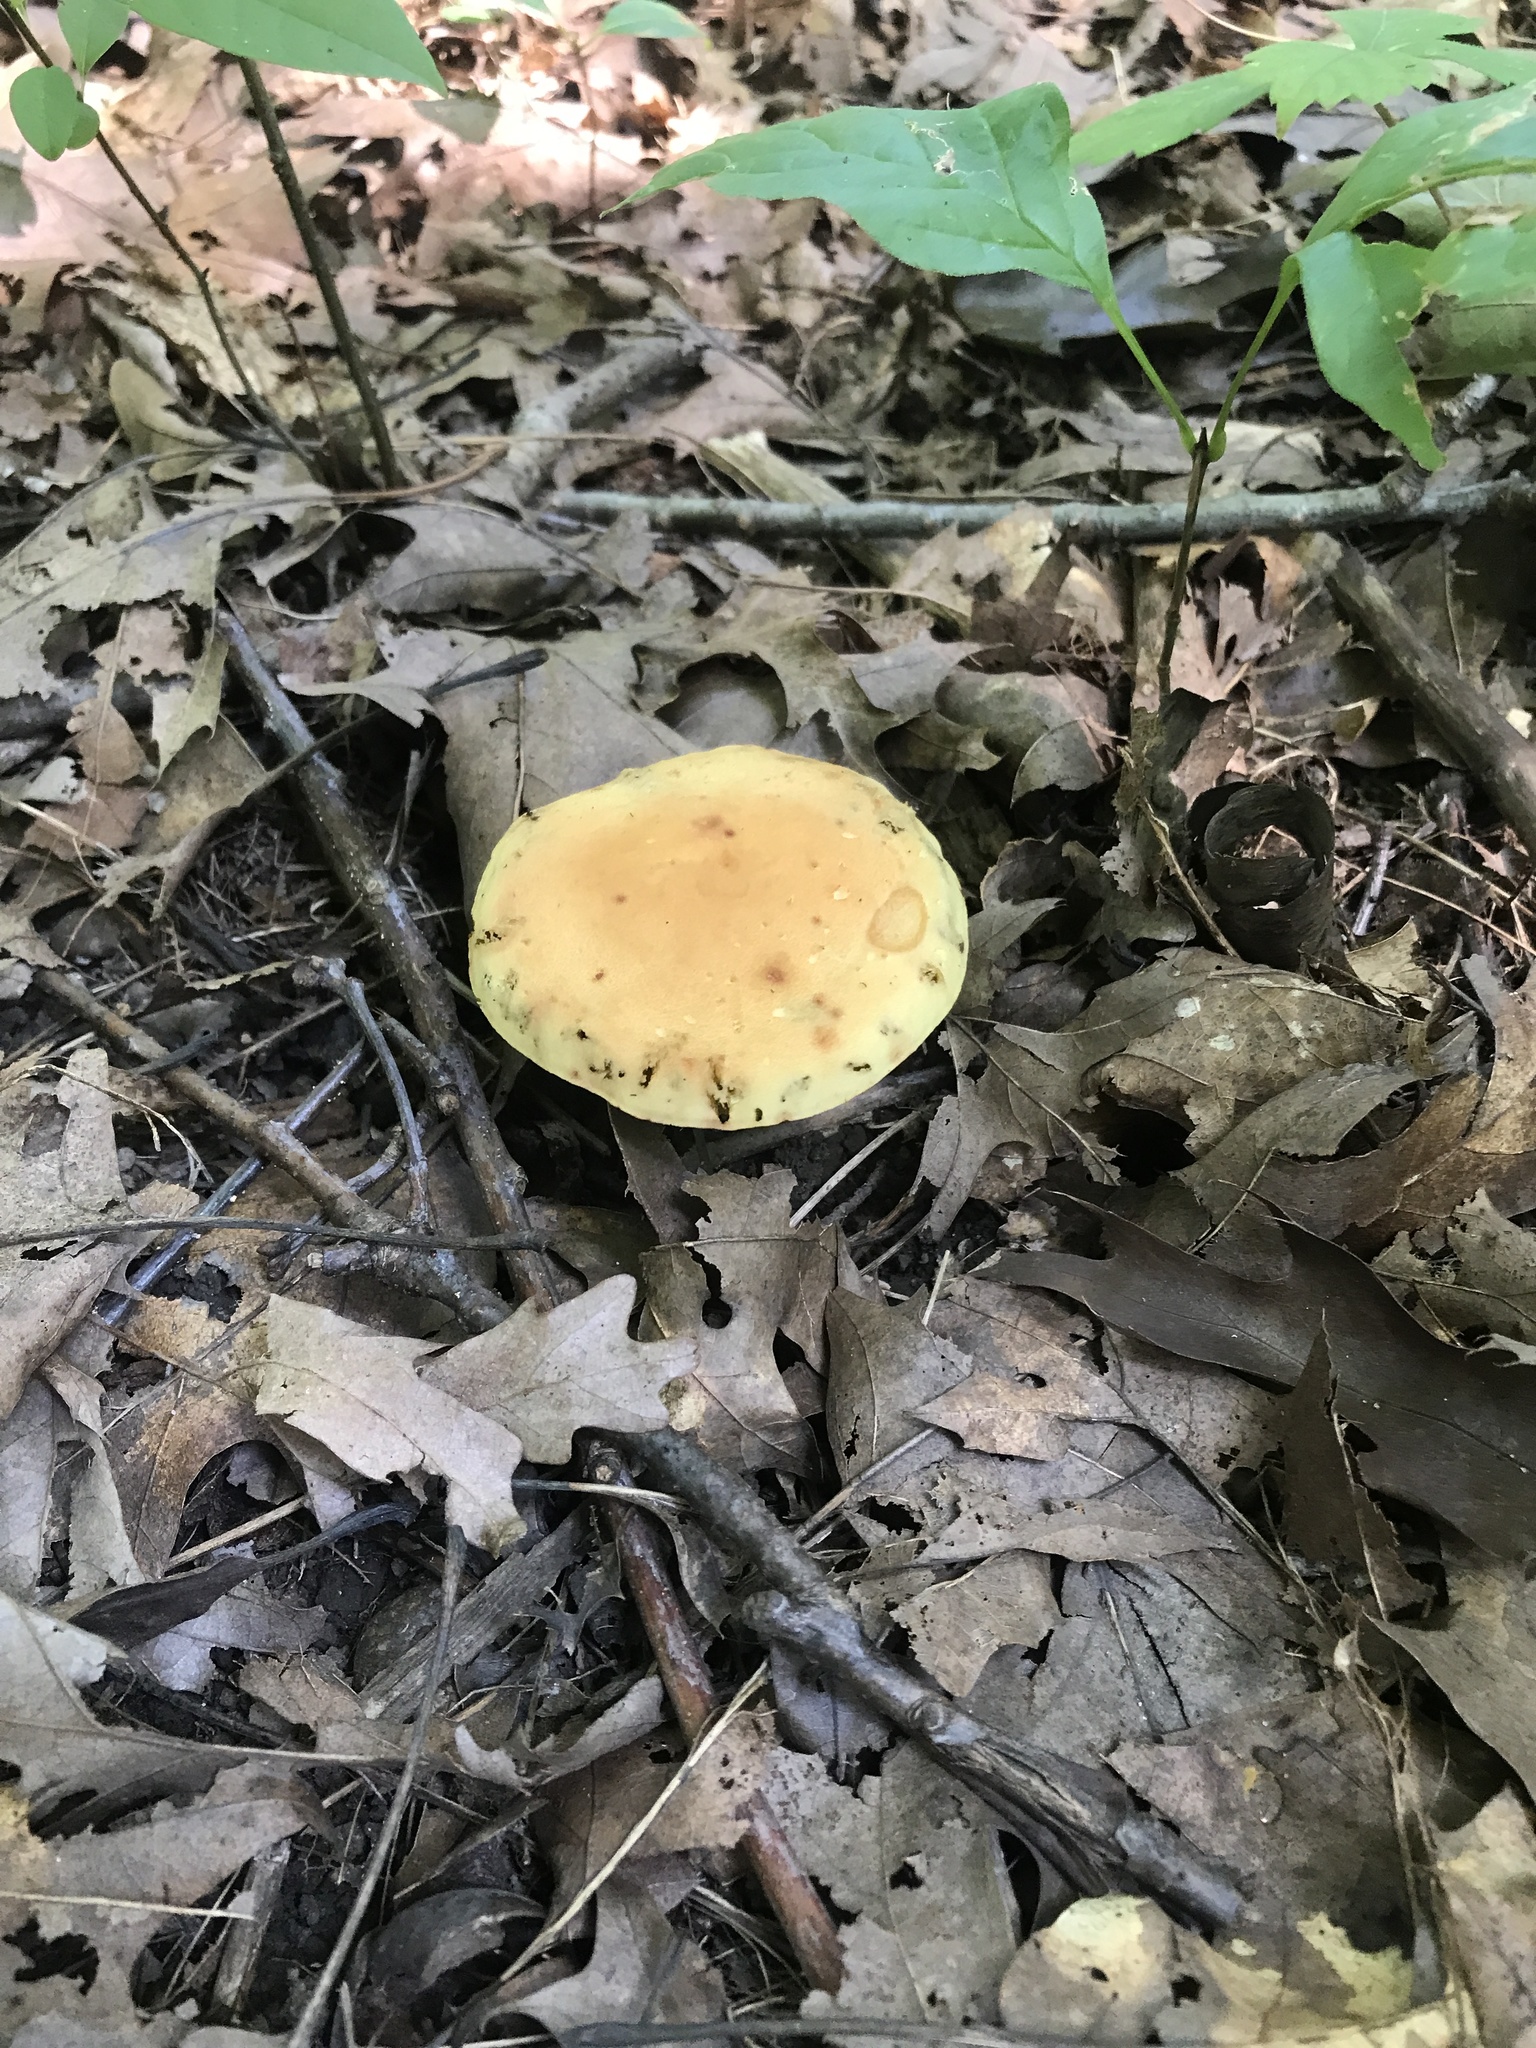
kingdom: Fungi
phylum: Basidiomycota
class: Agaricomycetes
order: Boletales
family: Boletaceae
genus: Xerocomus
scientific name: Xerocomus illudens
